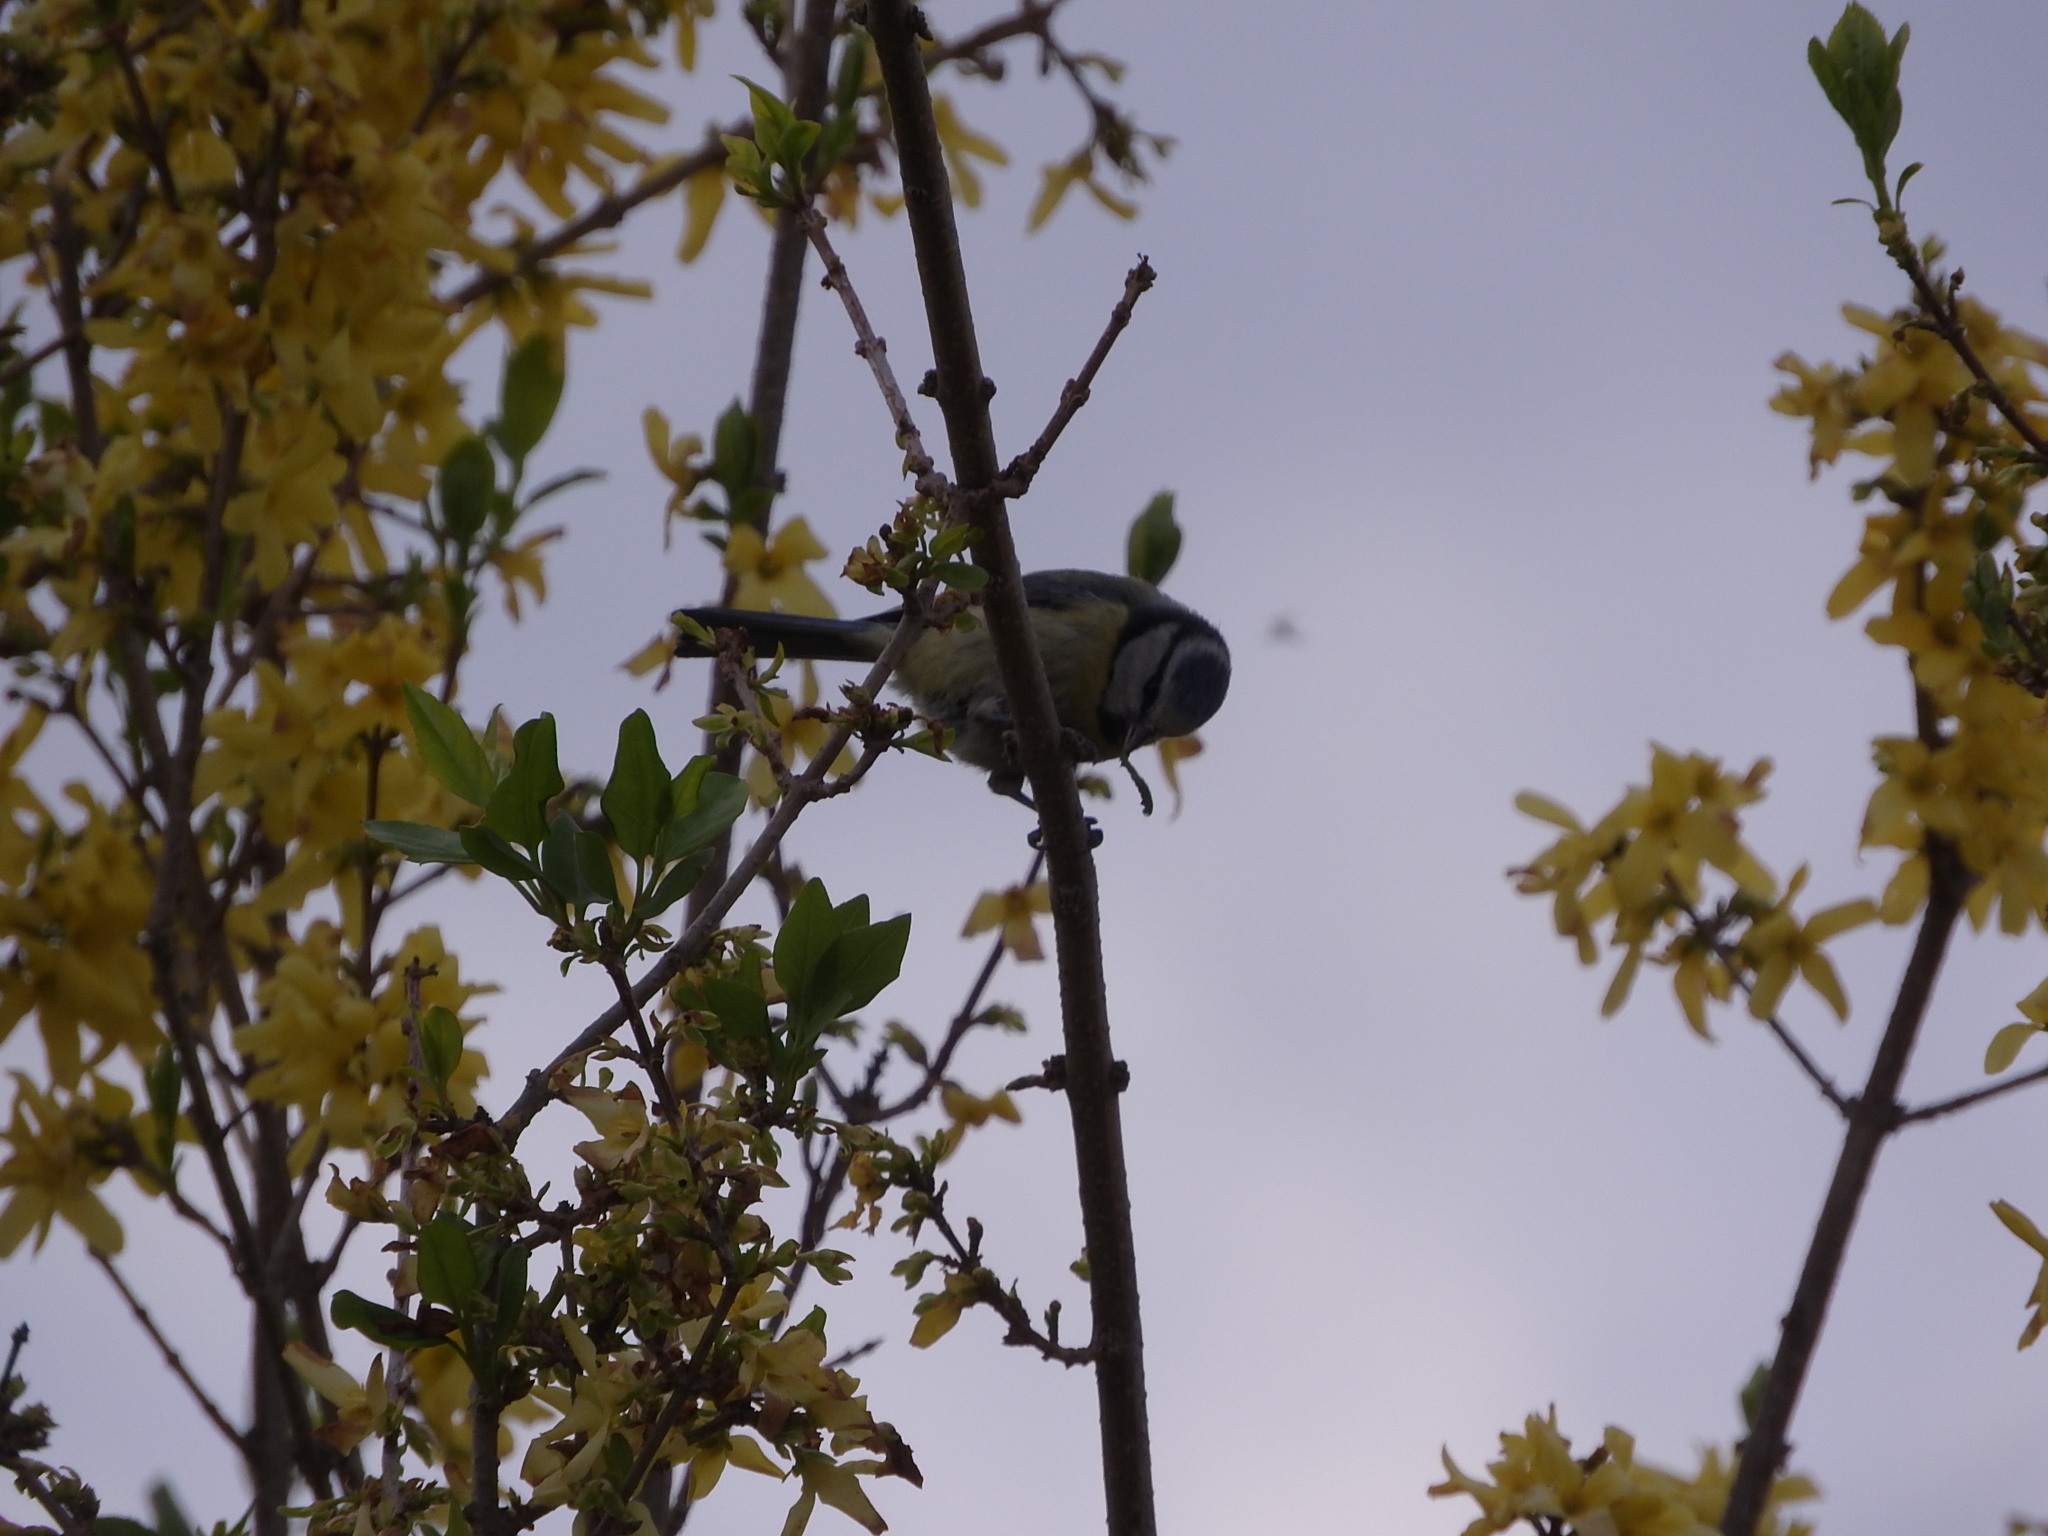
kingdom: Animalia
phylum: Chordata
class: Aves
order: Passeriformes
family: Paridae
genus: Cyanistes
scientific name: Cyanistes caeruleus
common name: Eurasian blue tit
